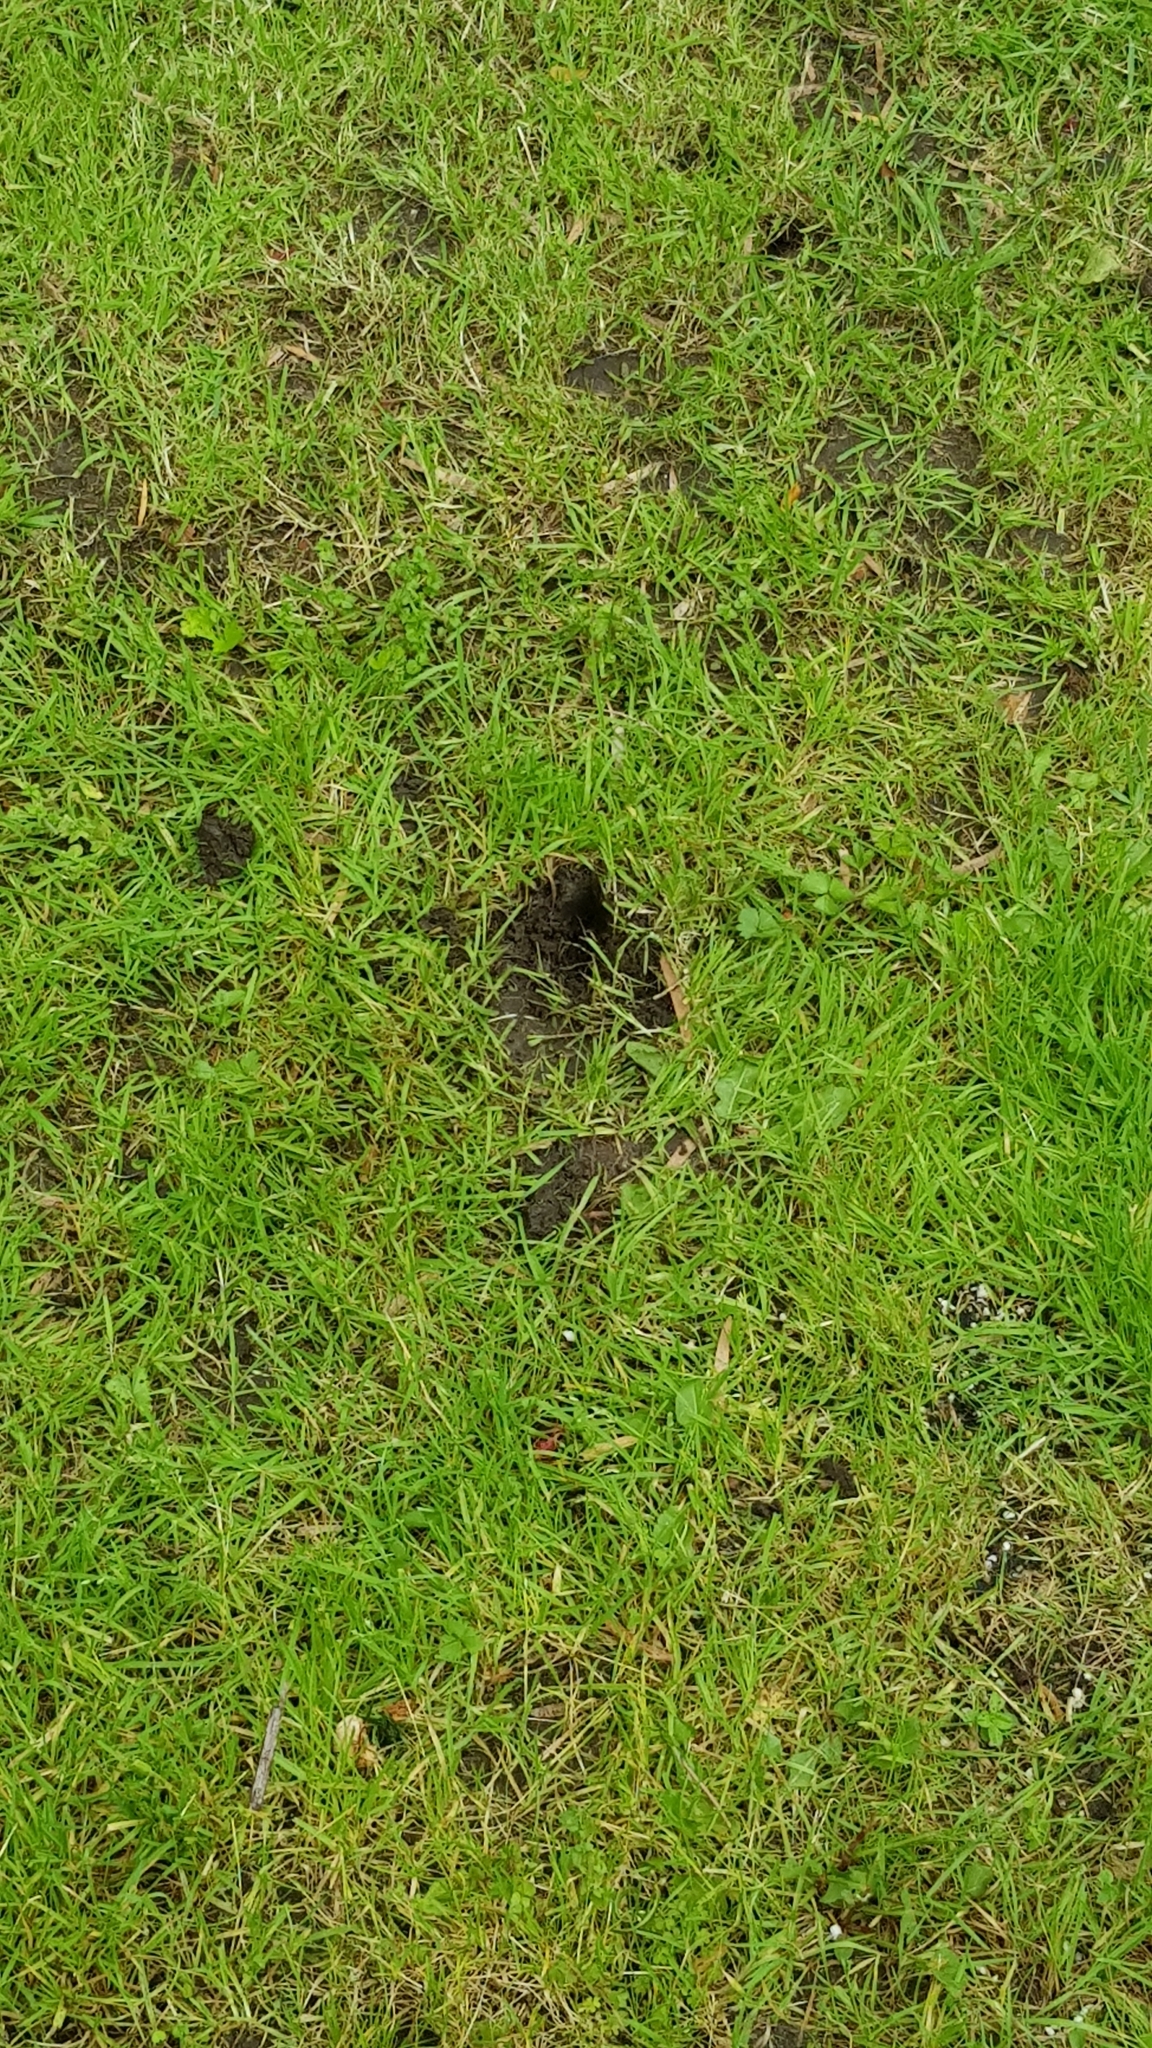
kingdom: Animalia
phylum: Chordata
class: Aves
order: Coraciiformes
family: Alcedinidae
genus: Dacelo
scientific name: Dacelo novaeguineae
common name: Laughing kookaburra
